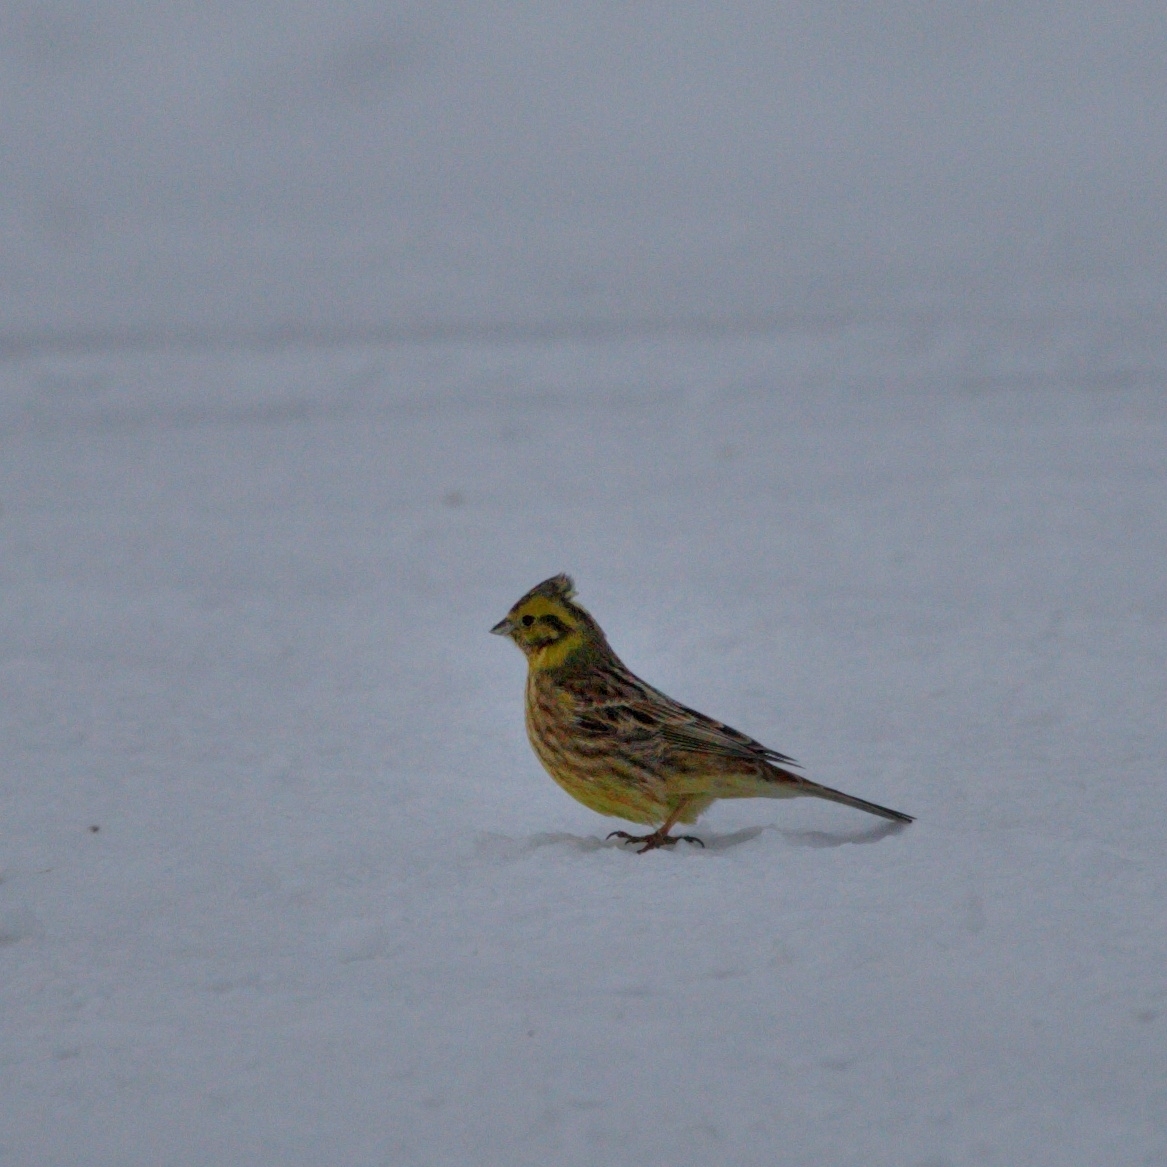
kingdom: Animalia
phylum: Chordata
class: Aves
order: Passeriformes
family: Emberizidae
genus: Emberiza
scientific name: Emberiza citrinella
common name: Yellowhammer
